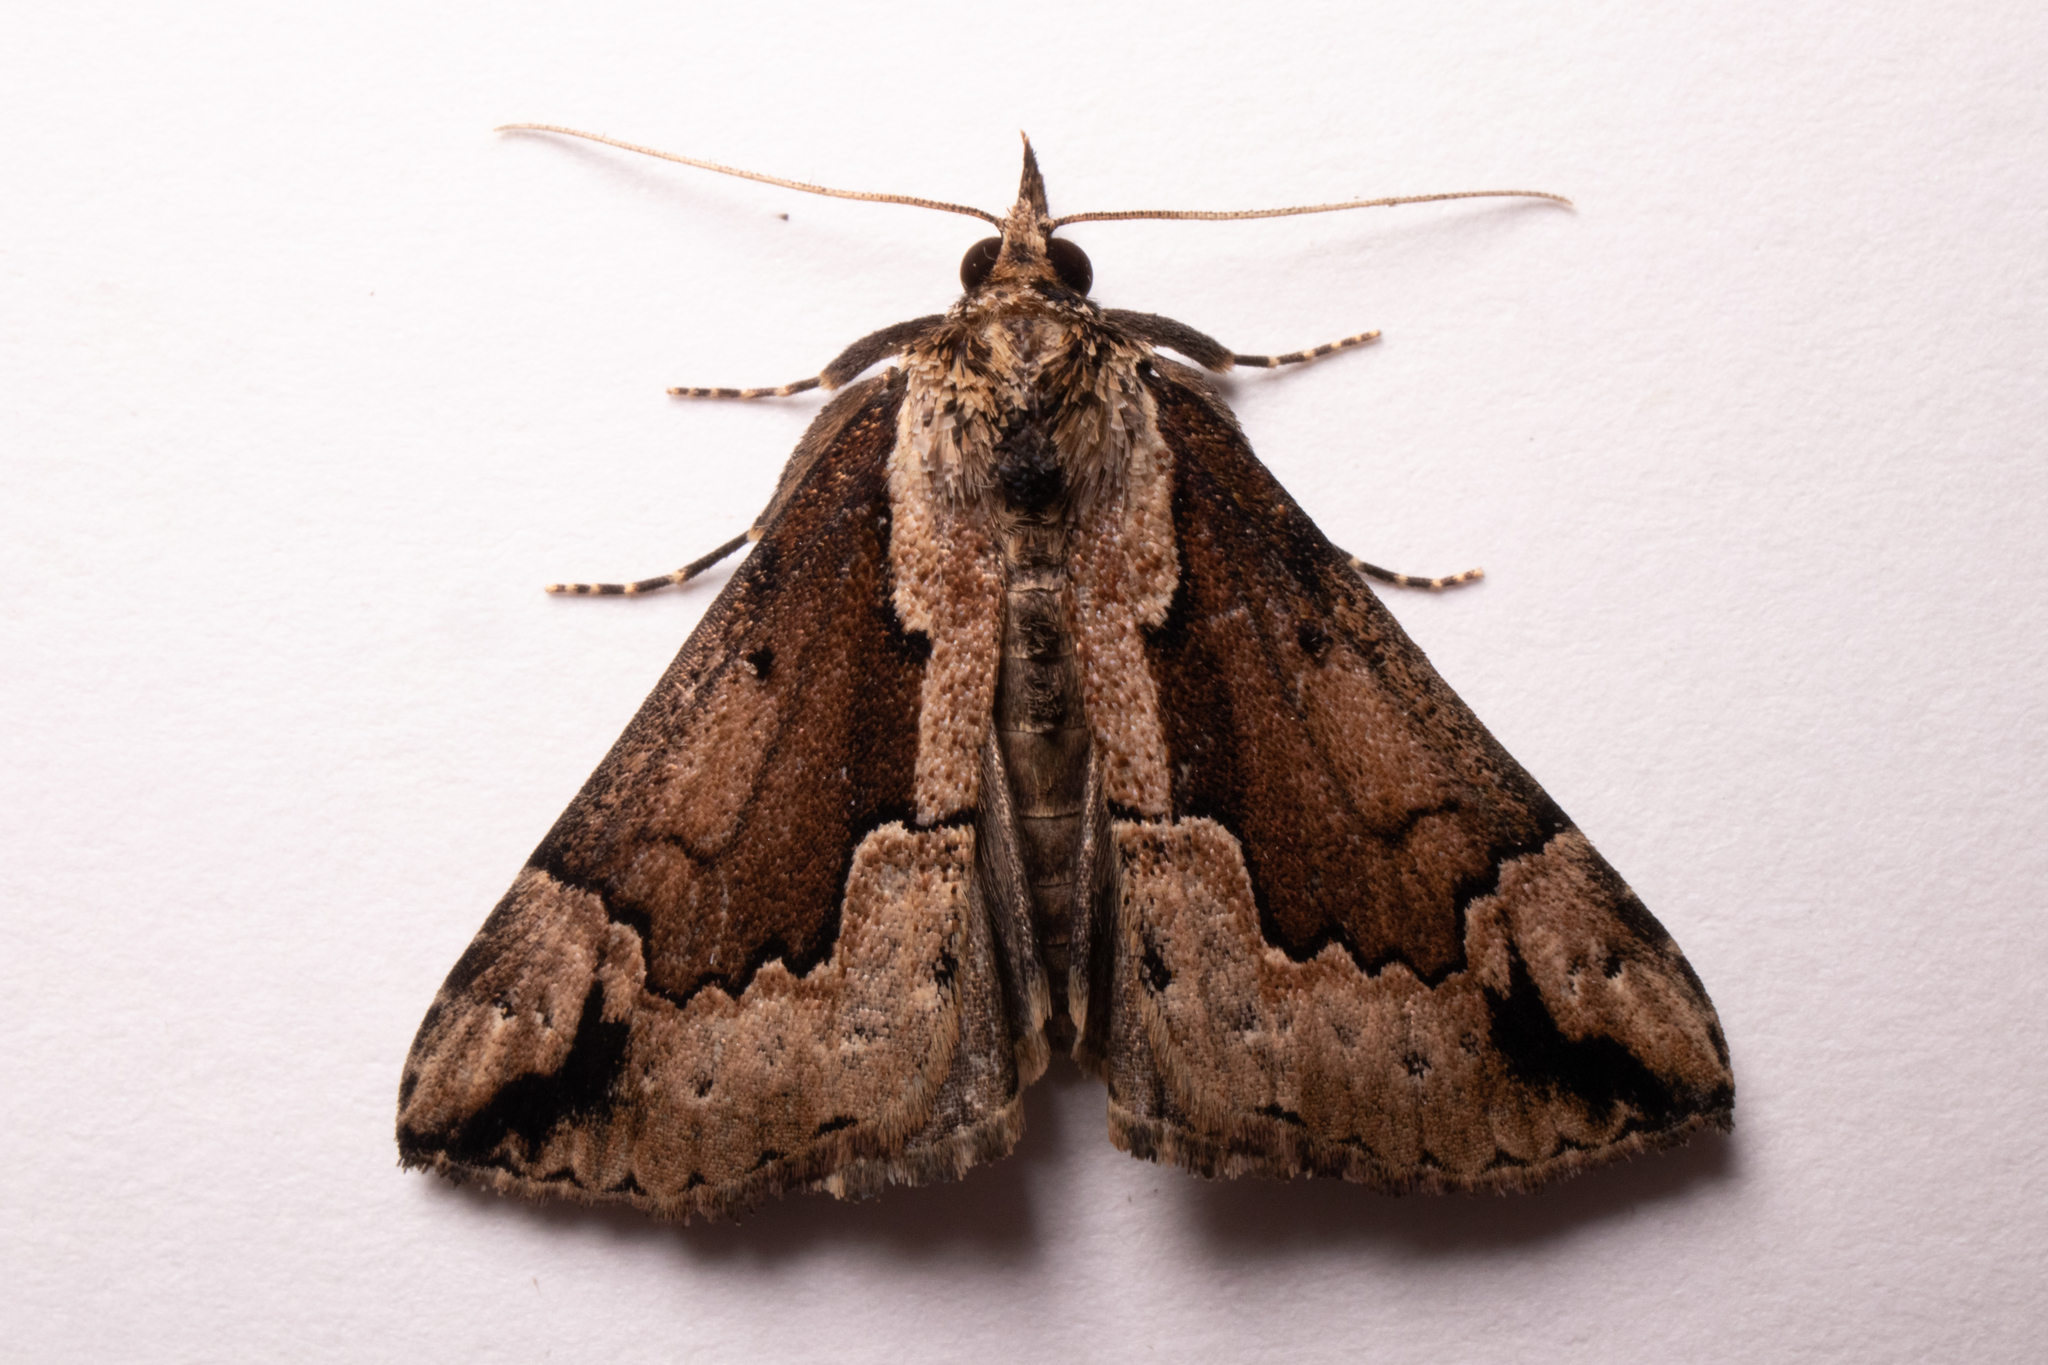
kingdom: Animalia
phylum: Arthropoda
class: Insecta
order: Lepidoptera
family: Erebidae
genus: Hypena
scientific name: Hypena baltimoralis
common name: Baltimore snout
